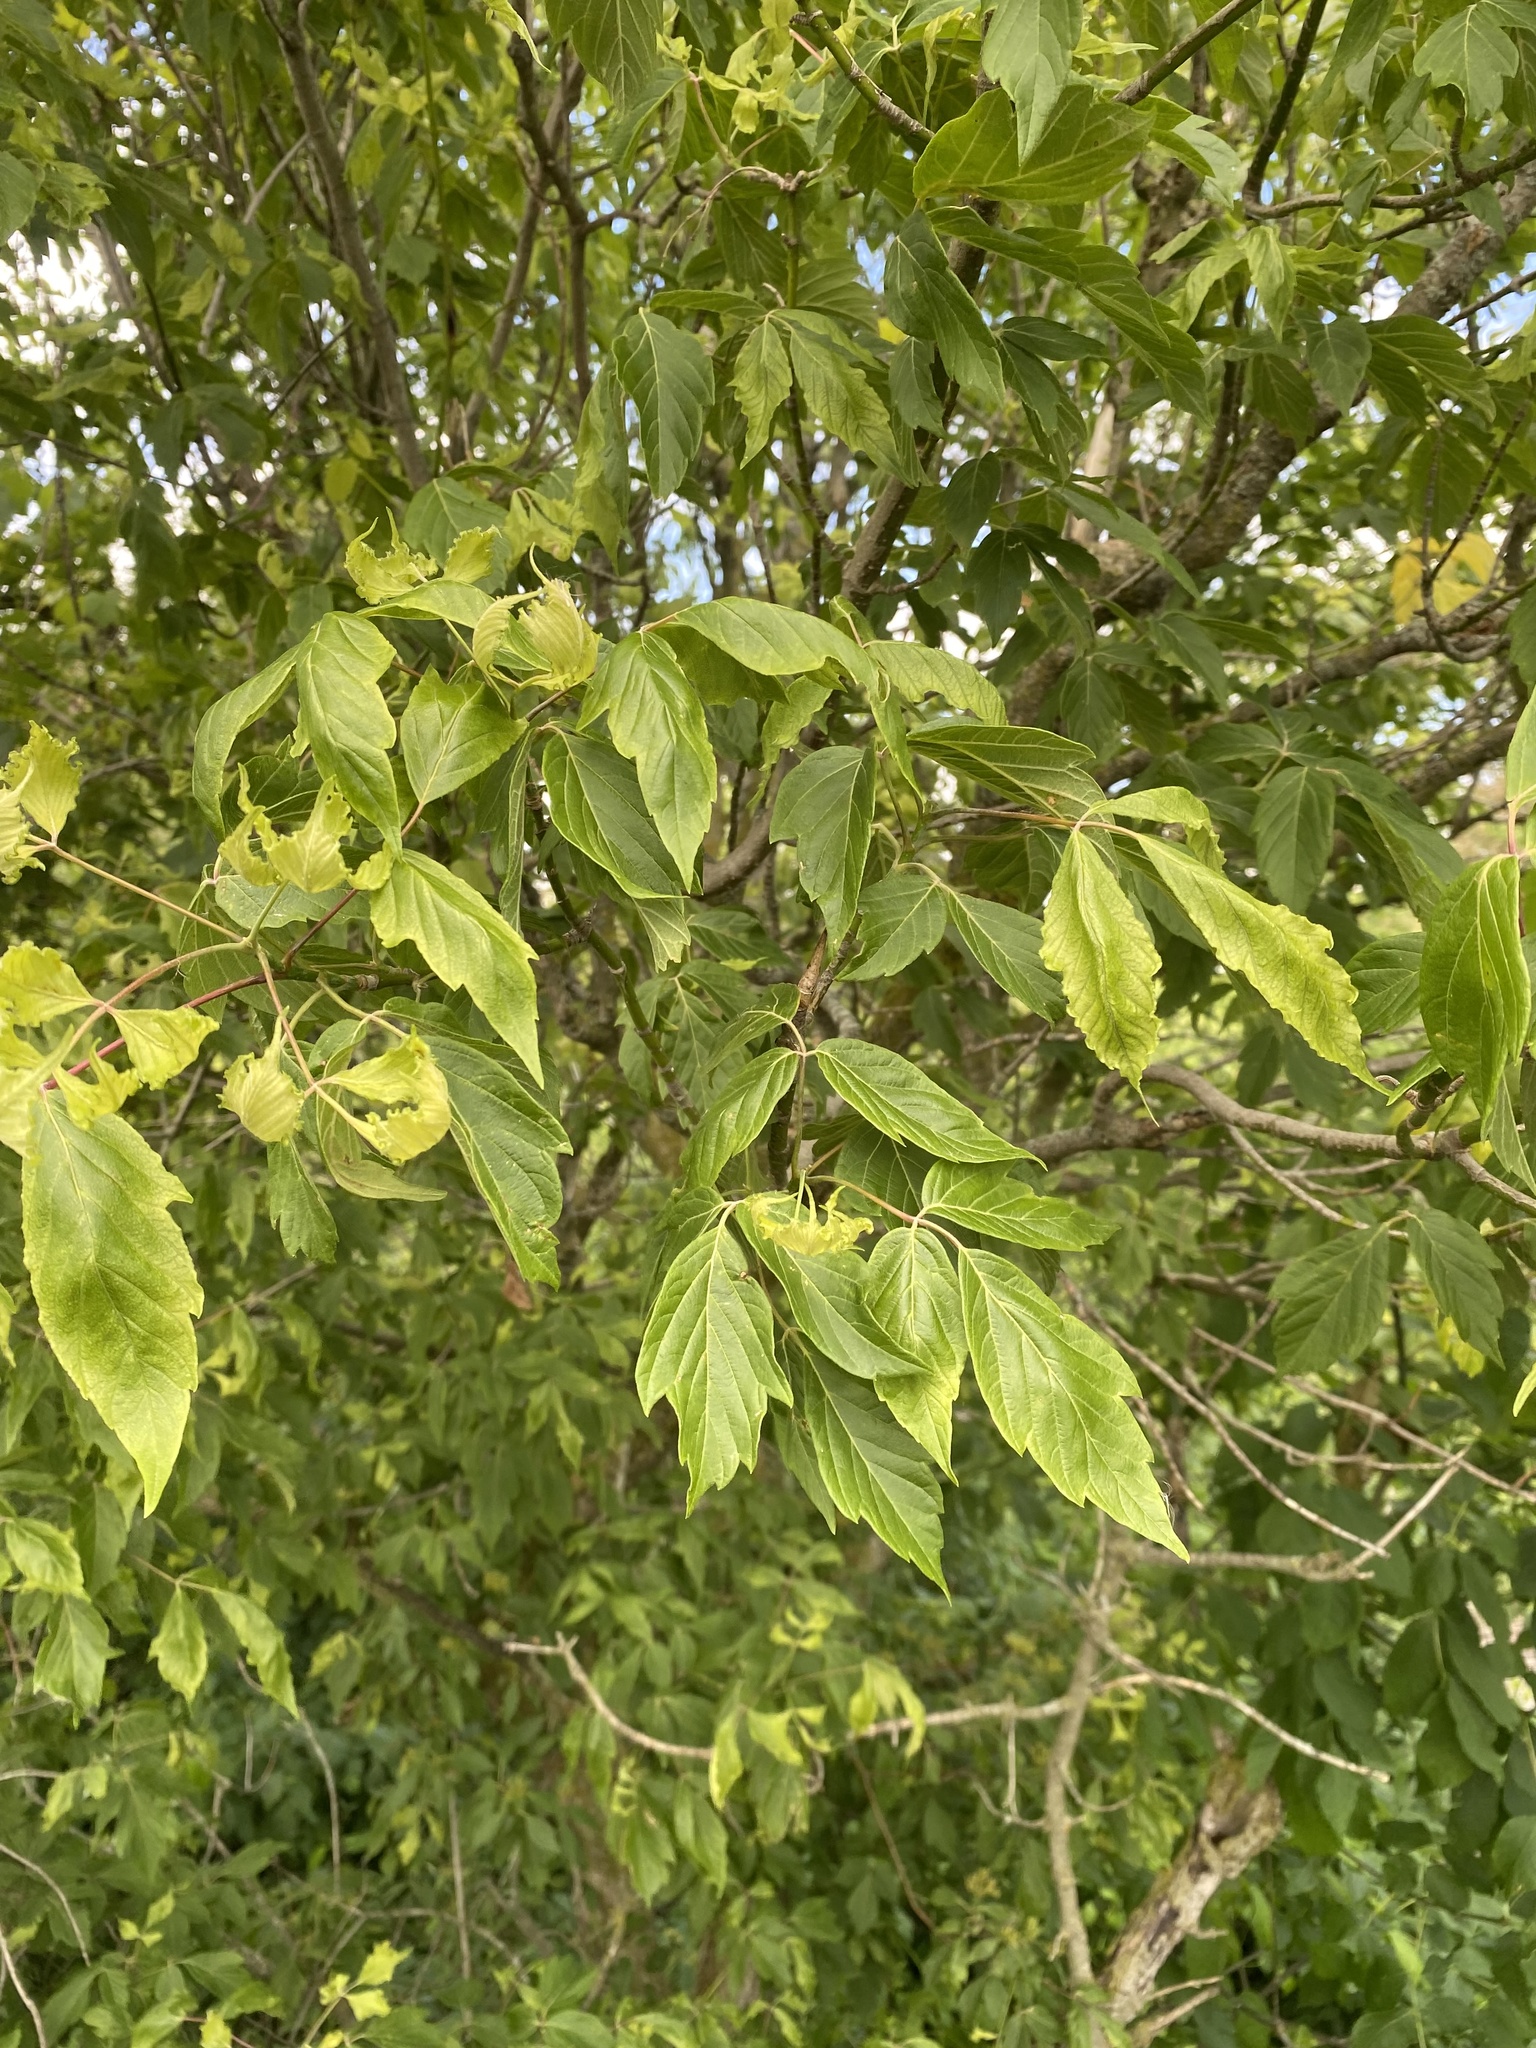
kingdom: Plantae
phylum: Tracheophyta
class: Magnoliopsida
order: Sapindales
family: Sapindaceae
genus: Acer
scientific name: Acer negundo
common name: Ashleaf maple
